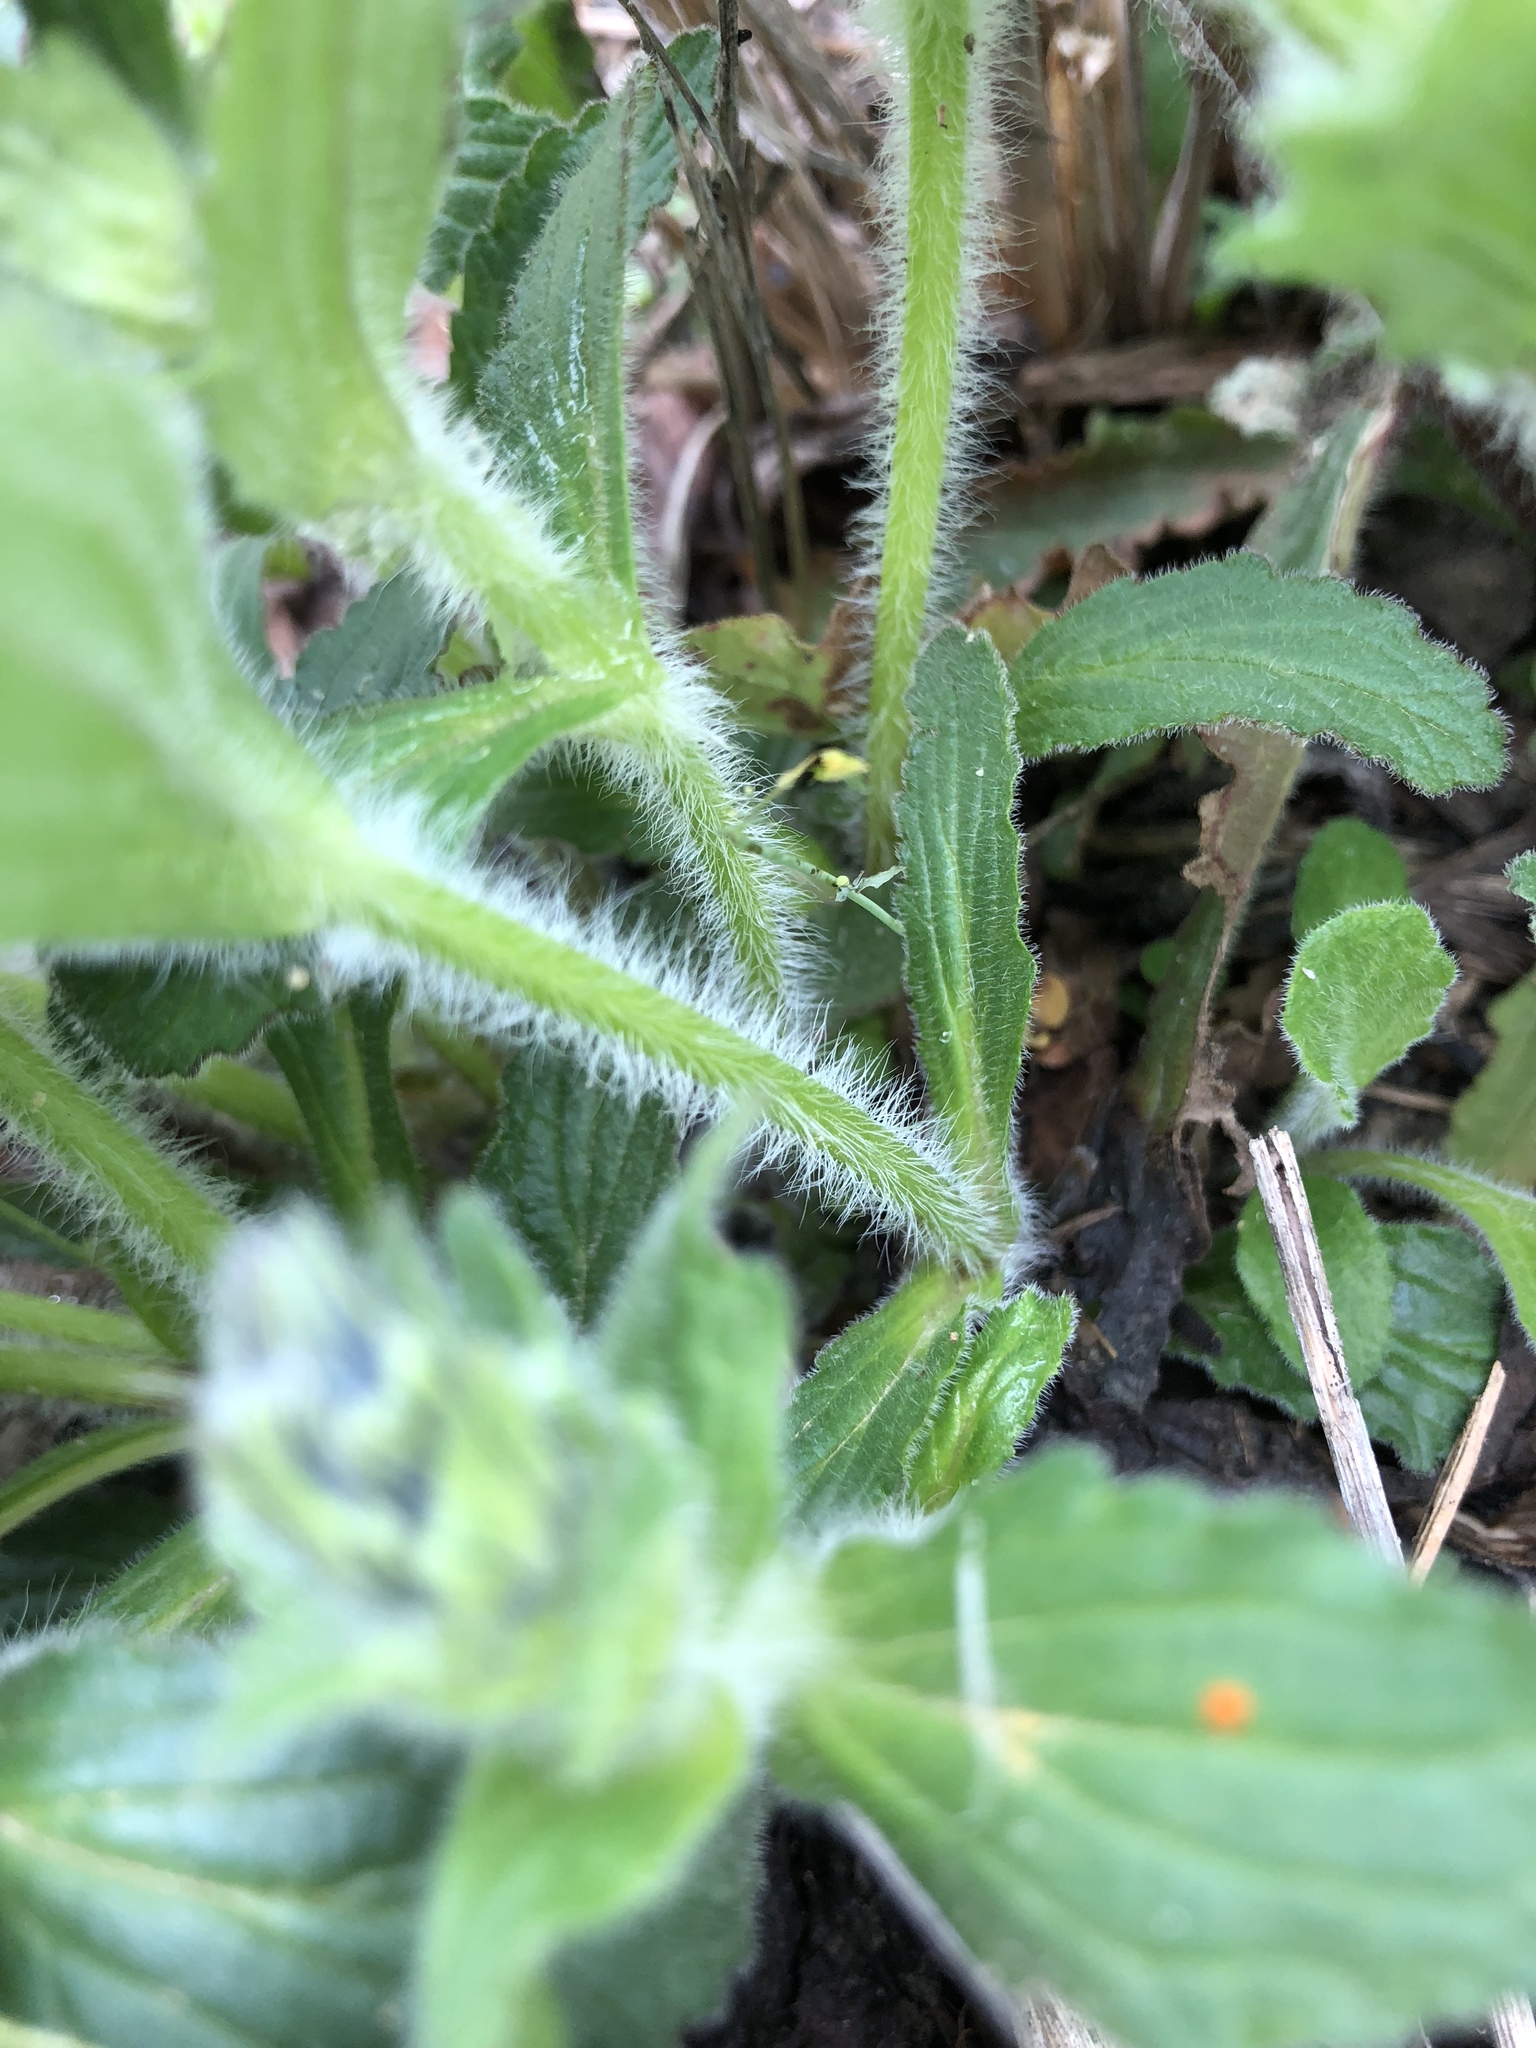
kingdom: Plantae
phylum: Tracheophyta
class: Magnoliopsida
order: Lamiales
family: Lamiaceae
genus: Ajuga
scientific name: Ajuga genevensis
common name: Blue bugle
